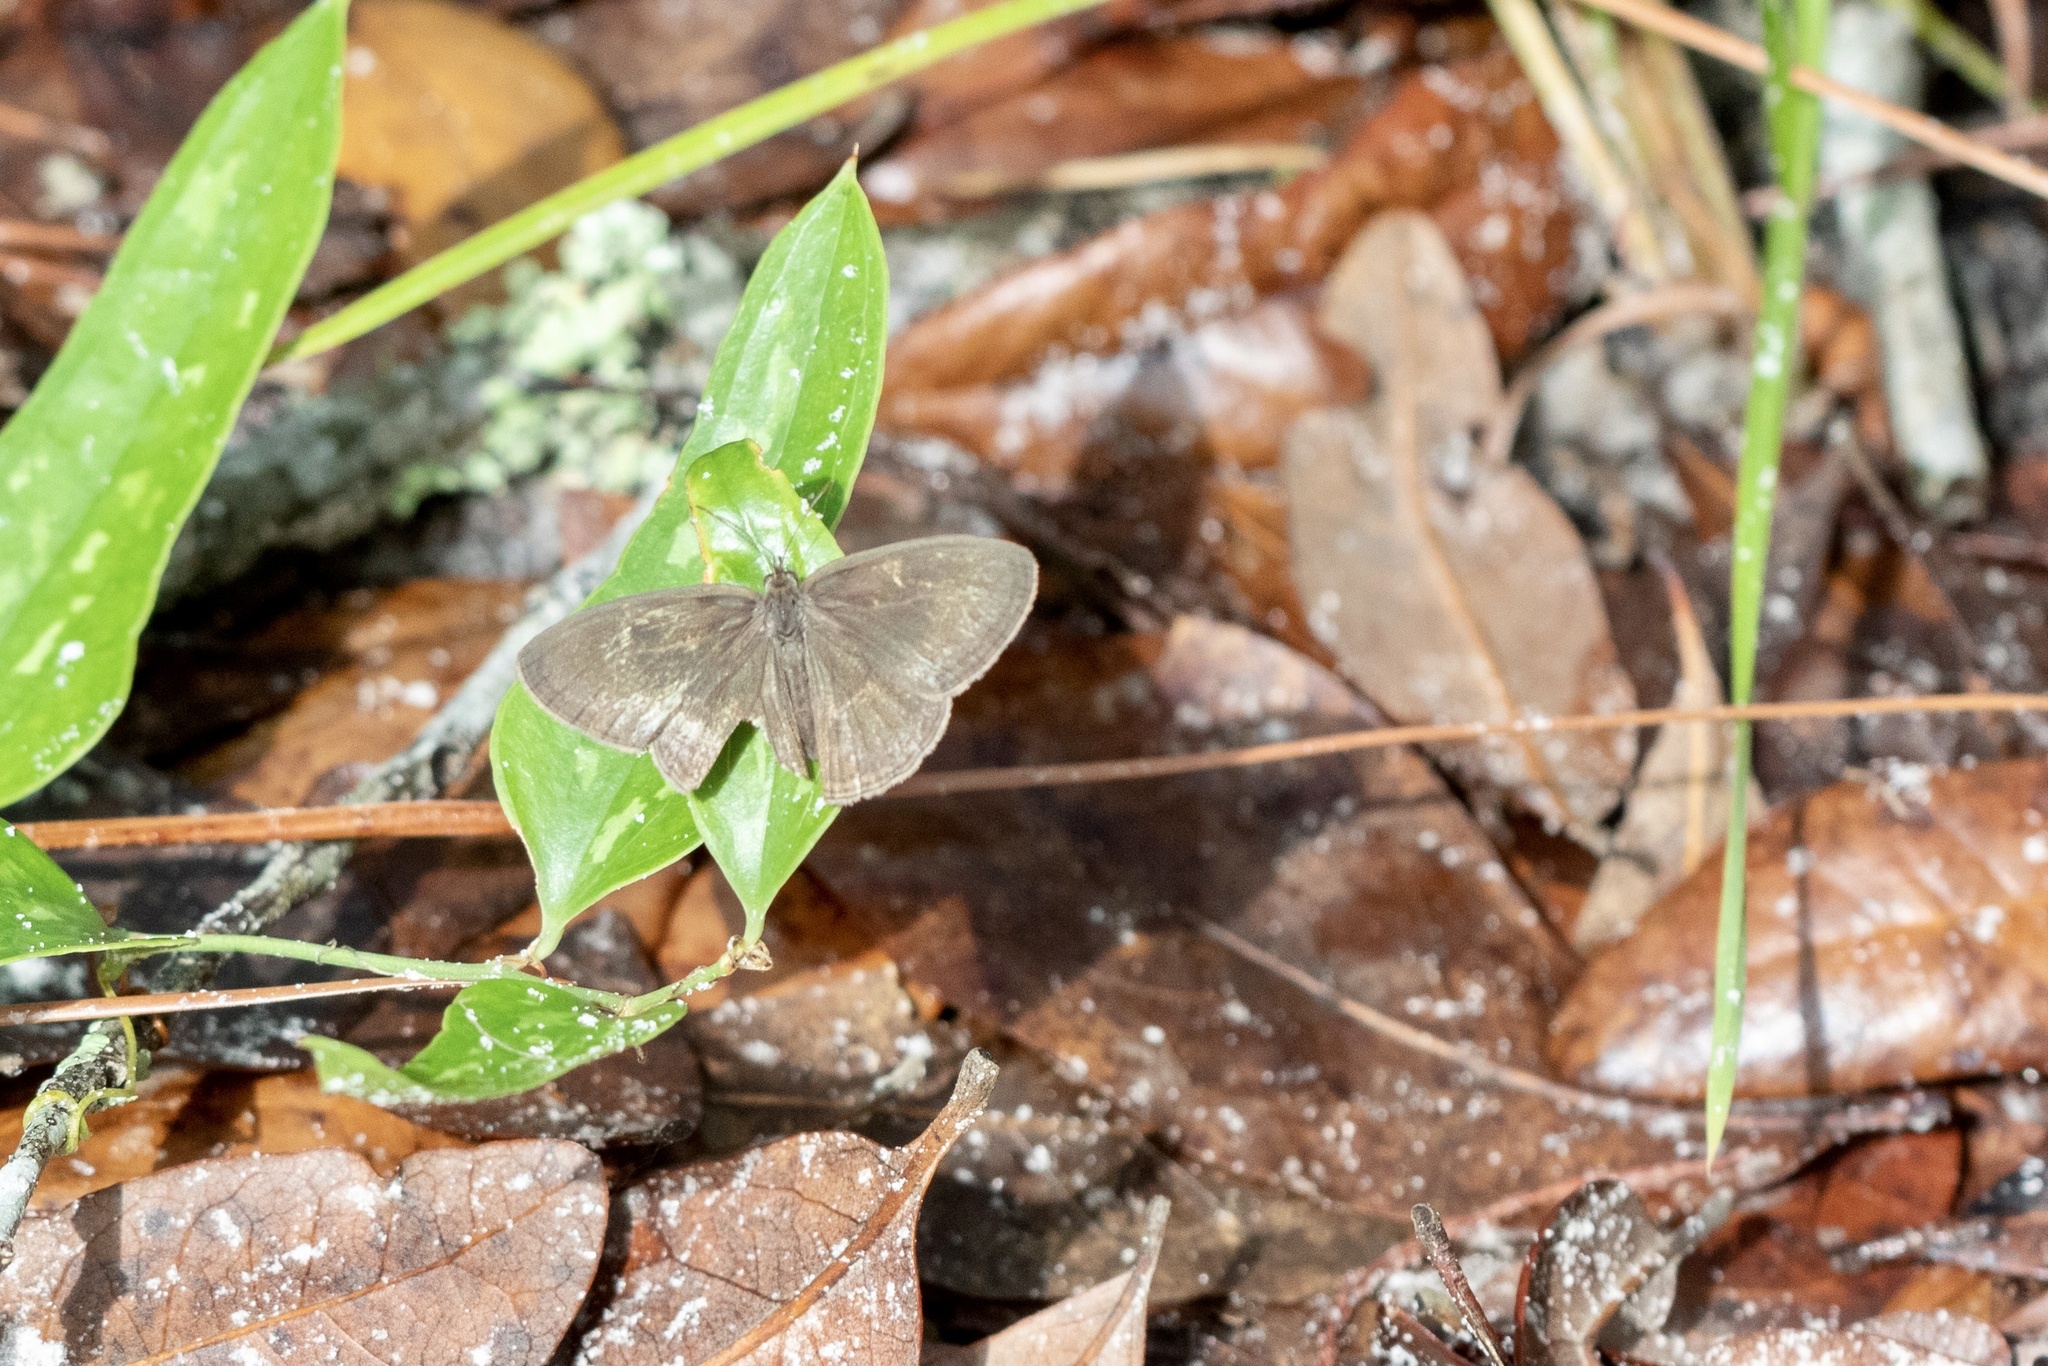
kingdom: Animalia
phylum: Arthropoda
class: Insecta
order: Lepidoptera
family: Nymphalidae
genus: Hermeuptychia
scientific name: Hermeuptychia hermes
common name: Hermes satyr
